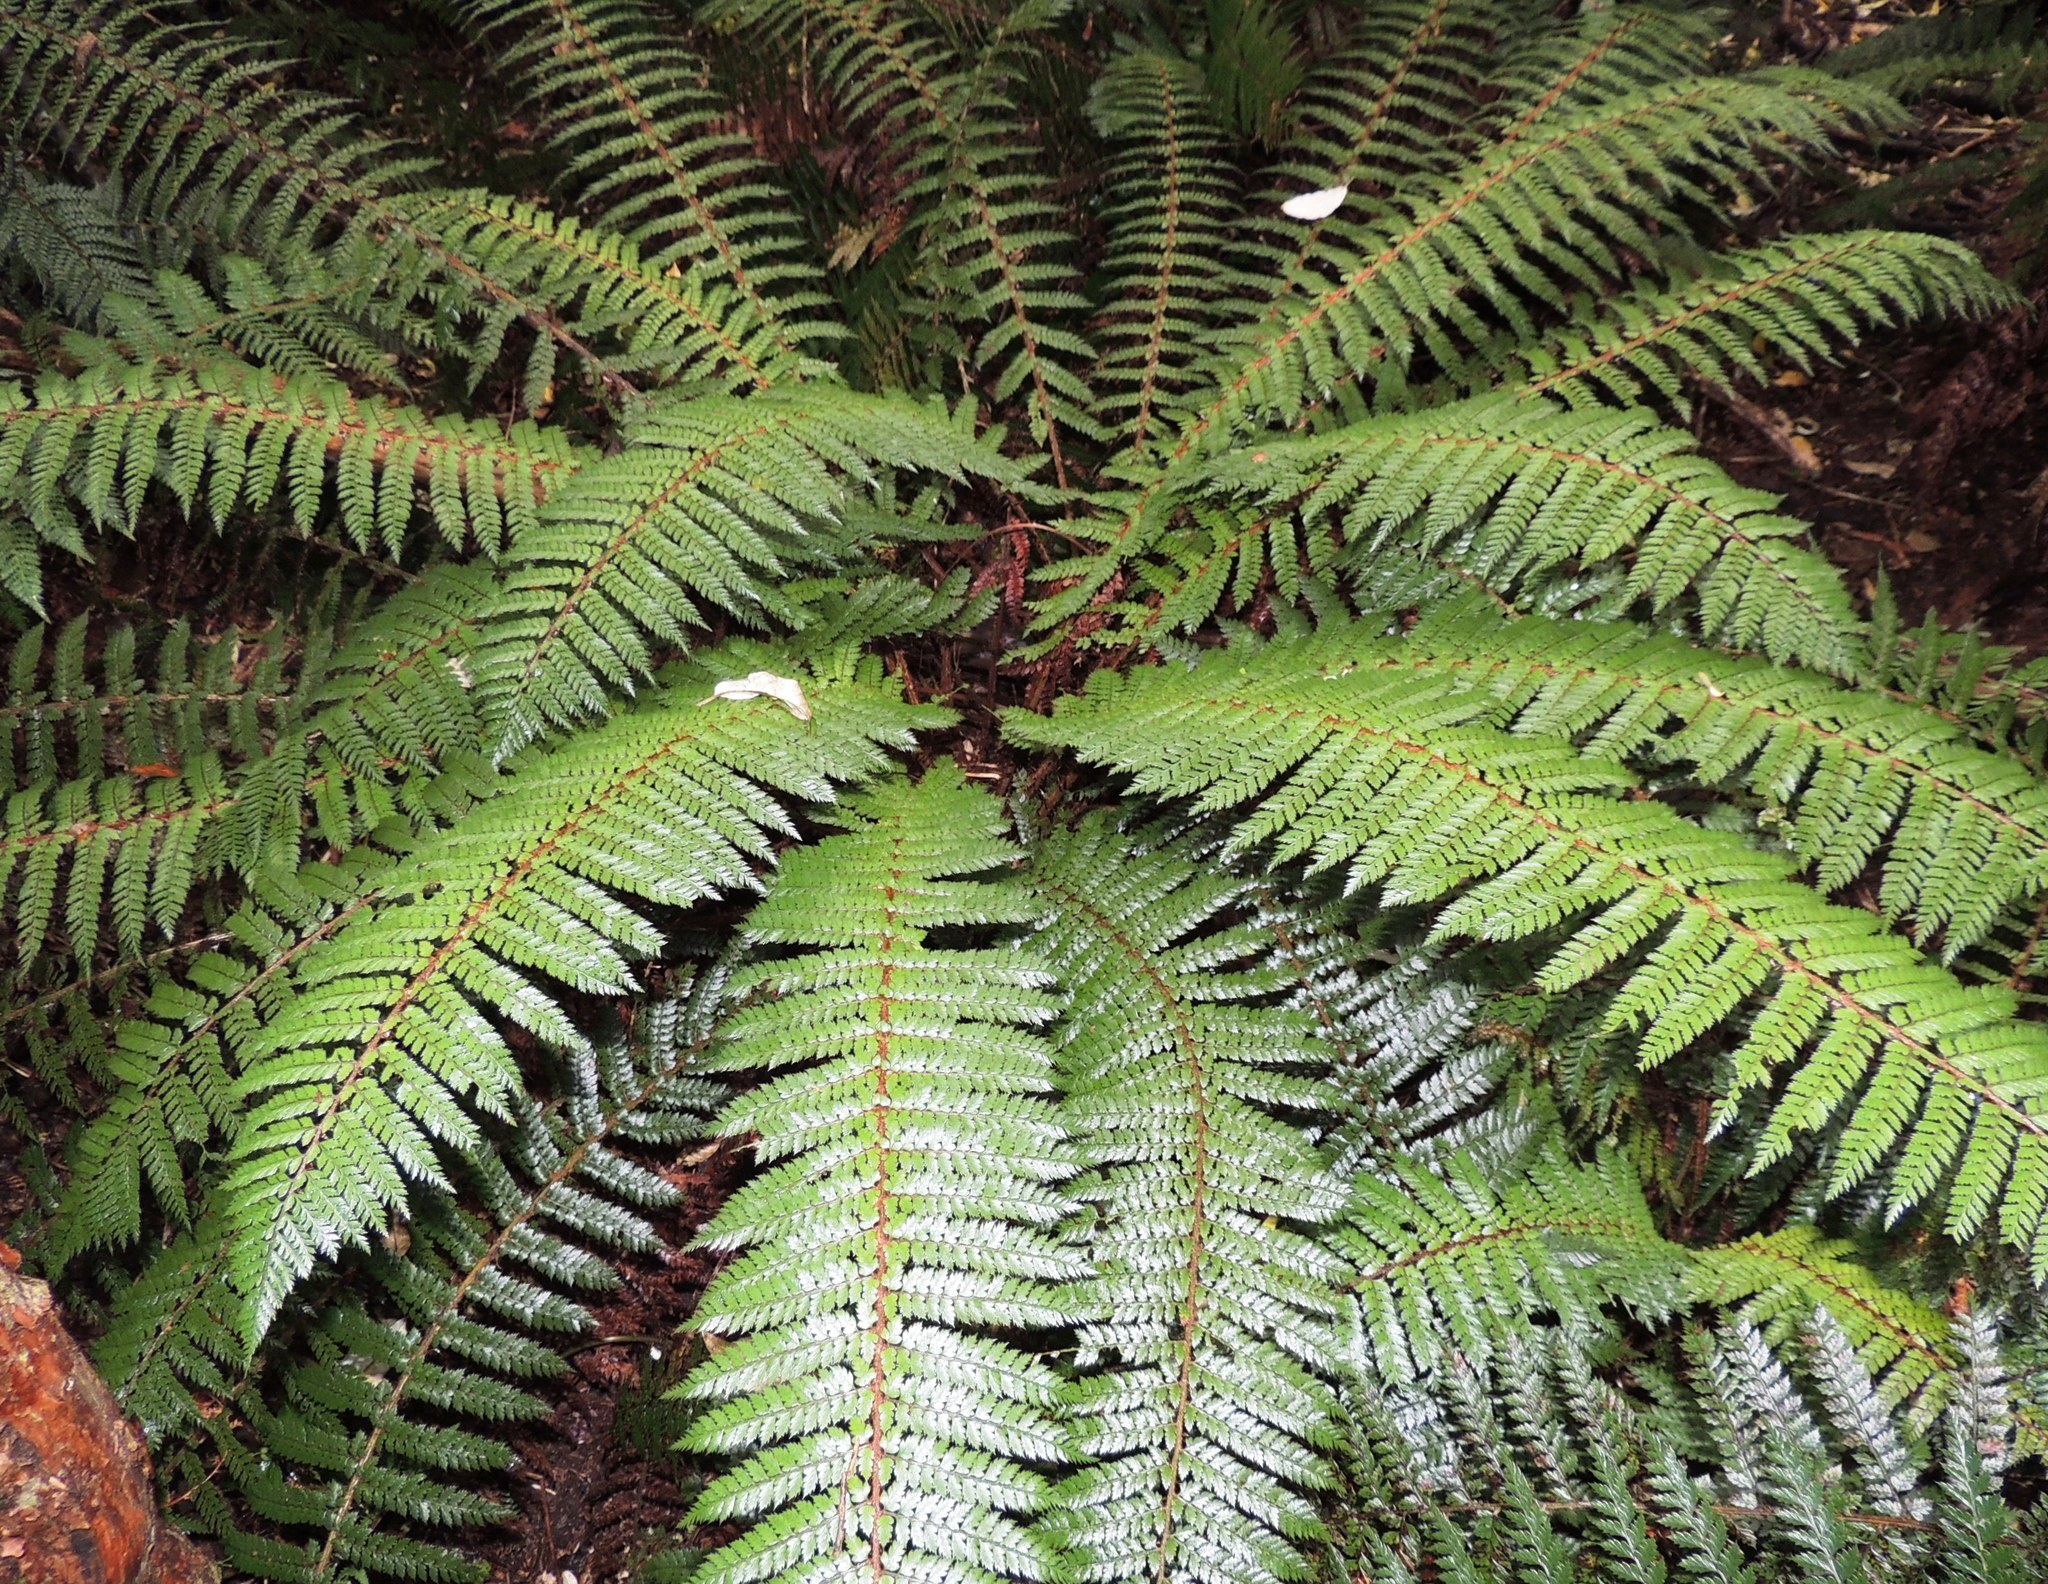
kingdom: Plantae
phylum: Tracheophyta
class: Polypodiopsida
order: Polypodiales
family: Dryopteridaceae
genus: Polystichum
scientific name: Polystichum vestitum
